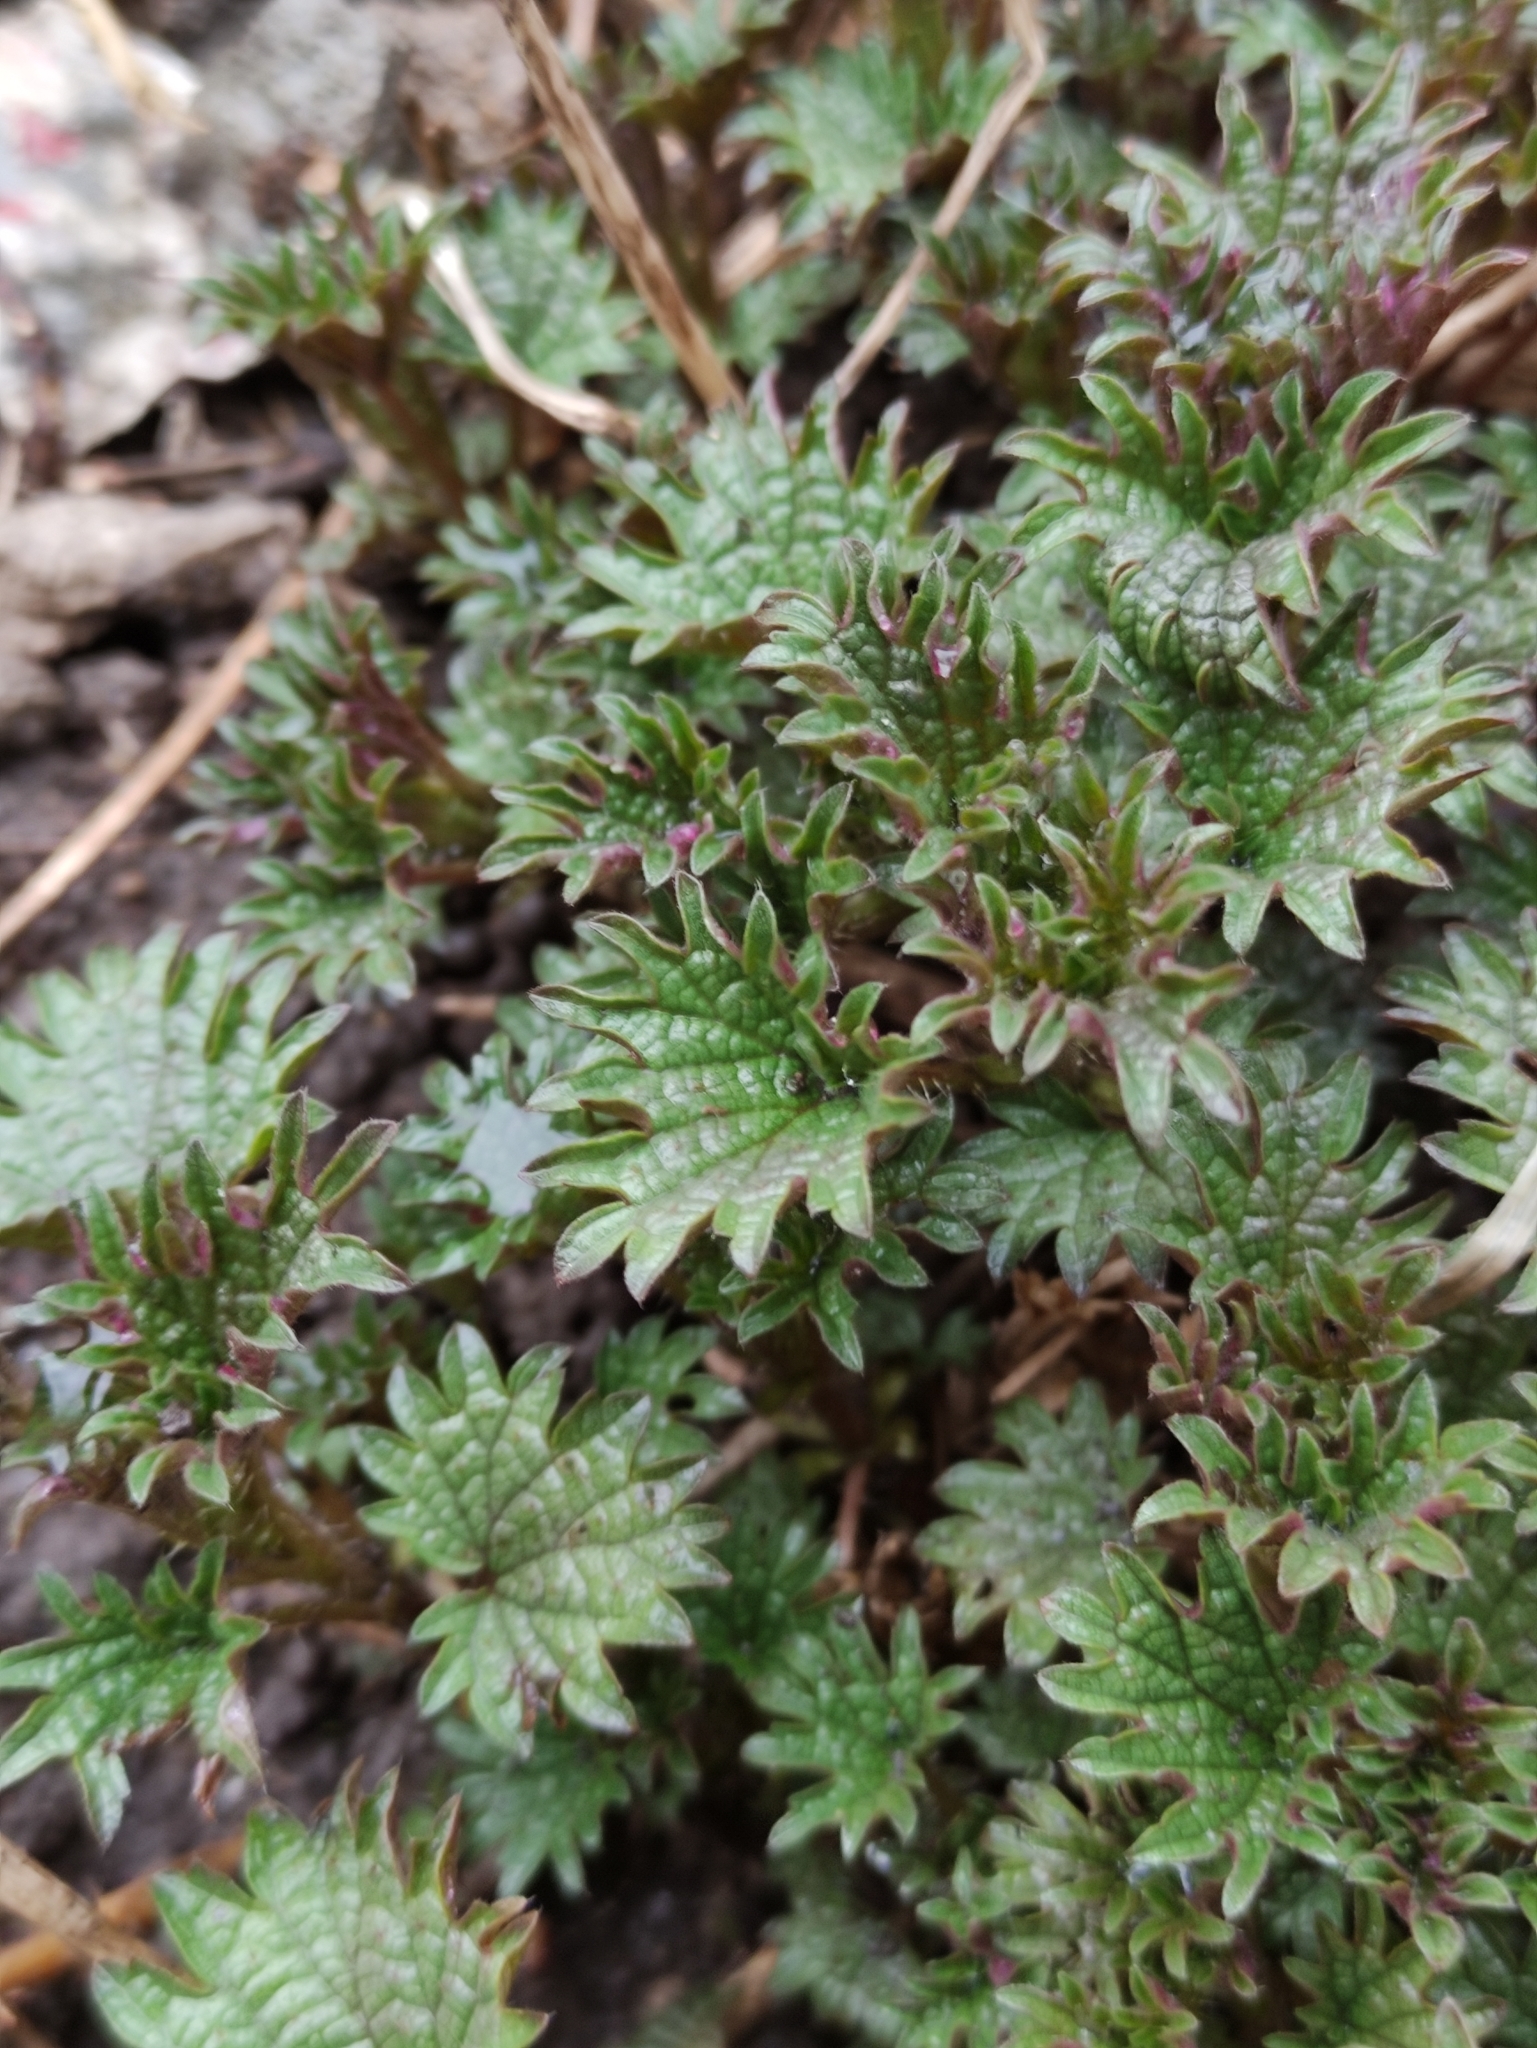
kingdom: Plantae
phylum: Tracheophyta
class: Magnoliopsida
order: Rosales
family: Urticaceae
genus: Urtica
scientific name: Urtica dioica
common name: Common nettle
